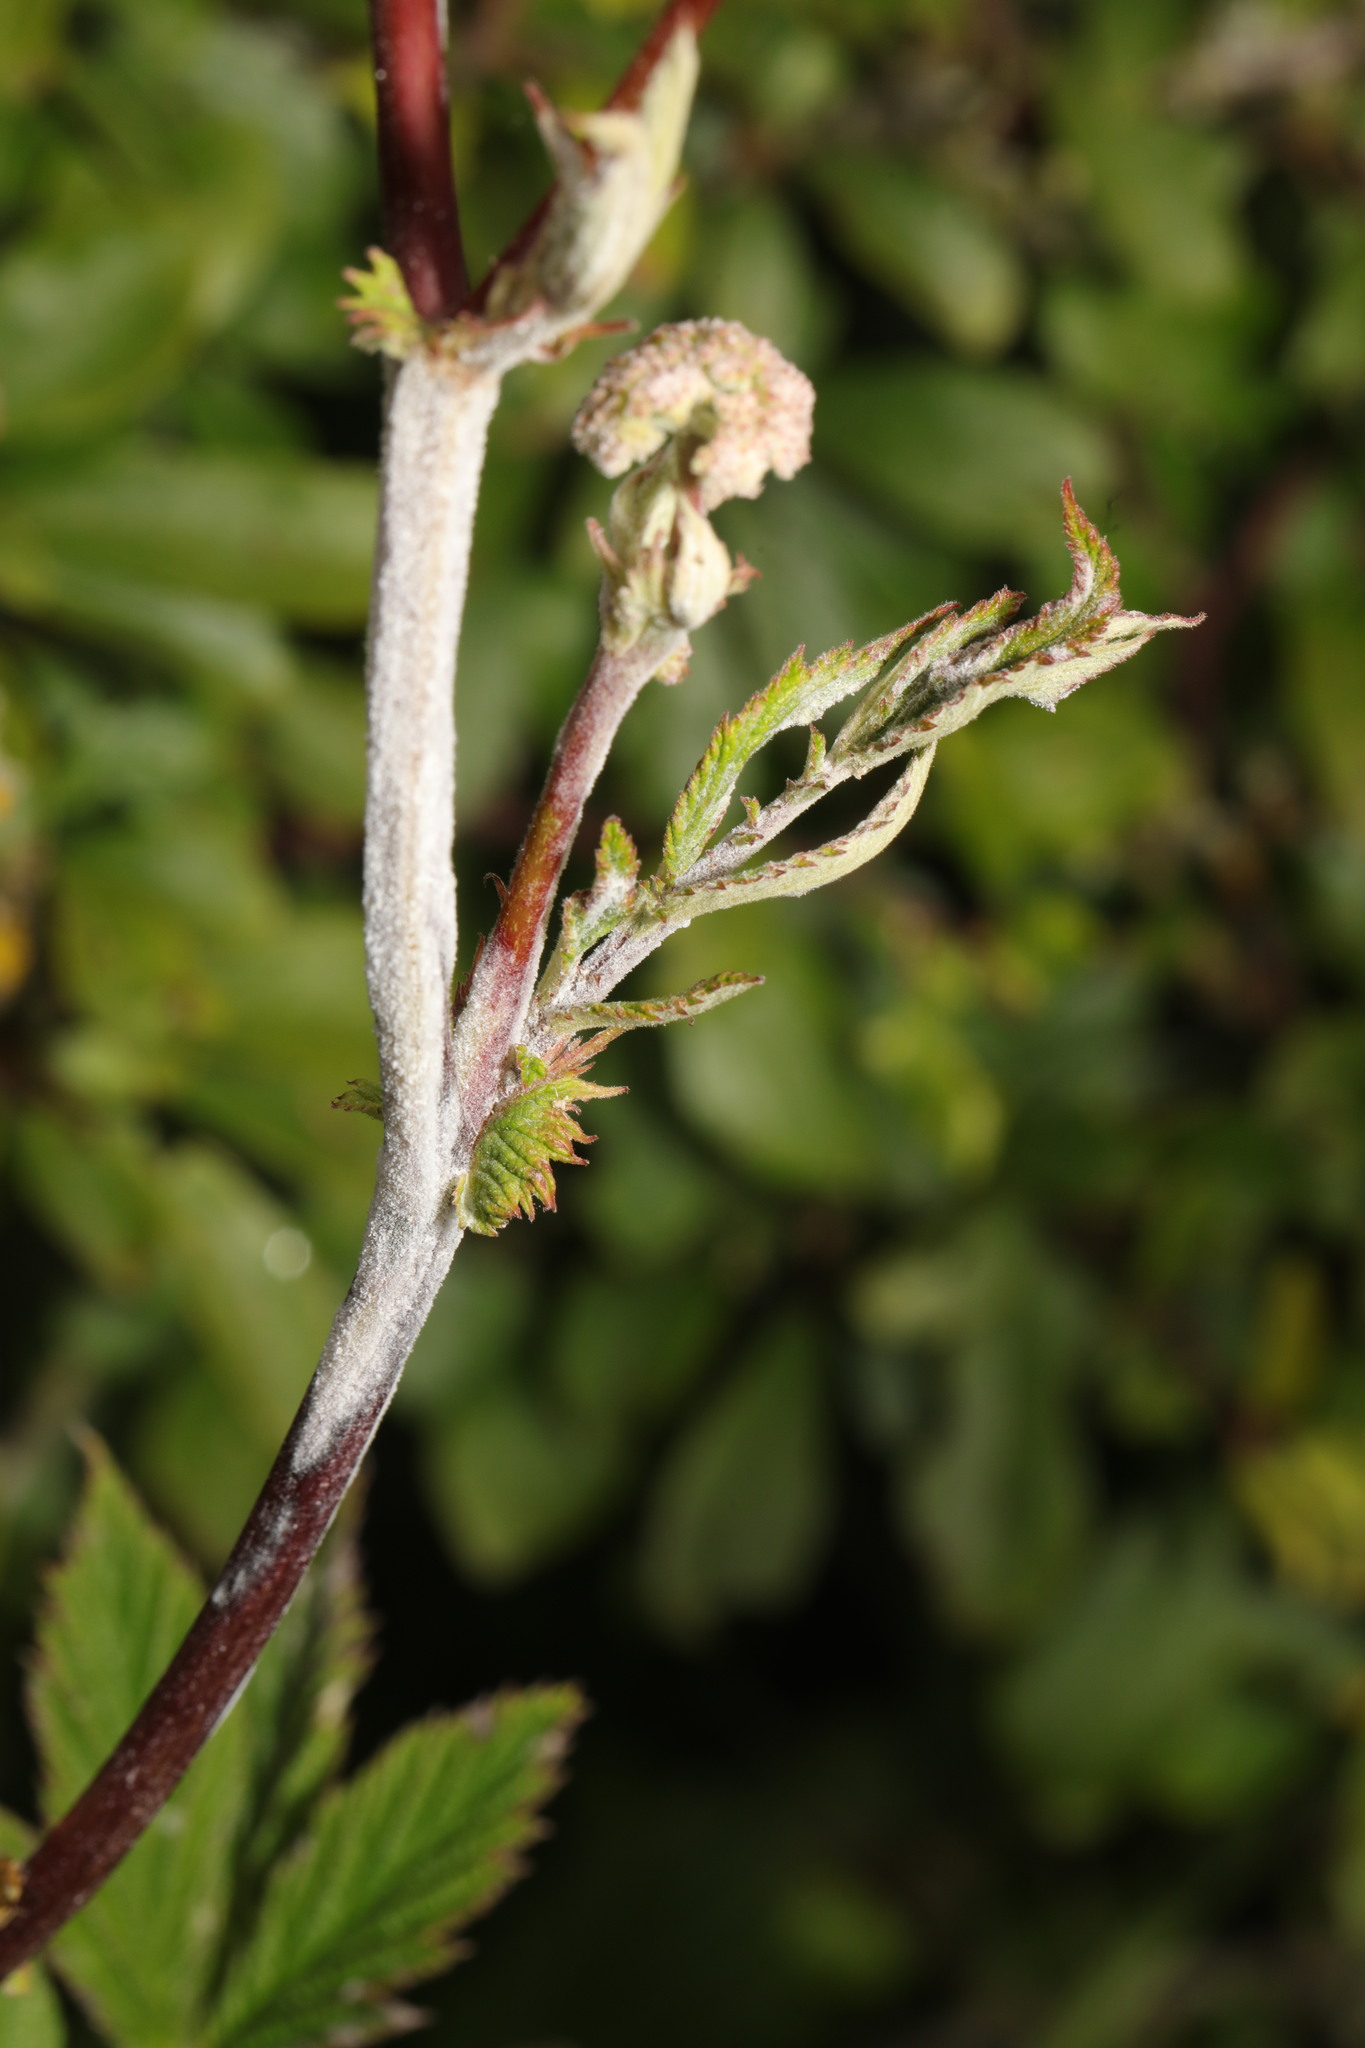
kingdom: Fungi
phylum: Ascomycota
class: Leotiomycetes
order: Helotiales
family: Erysiphaceae
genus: Podosphaera
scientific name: Podosphaera filipendulae
